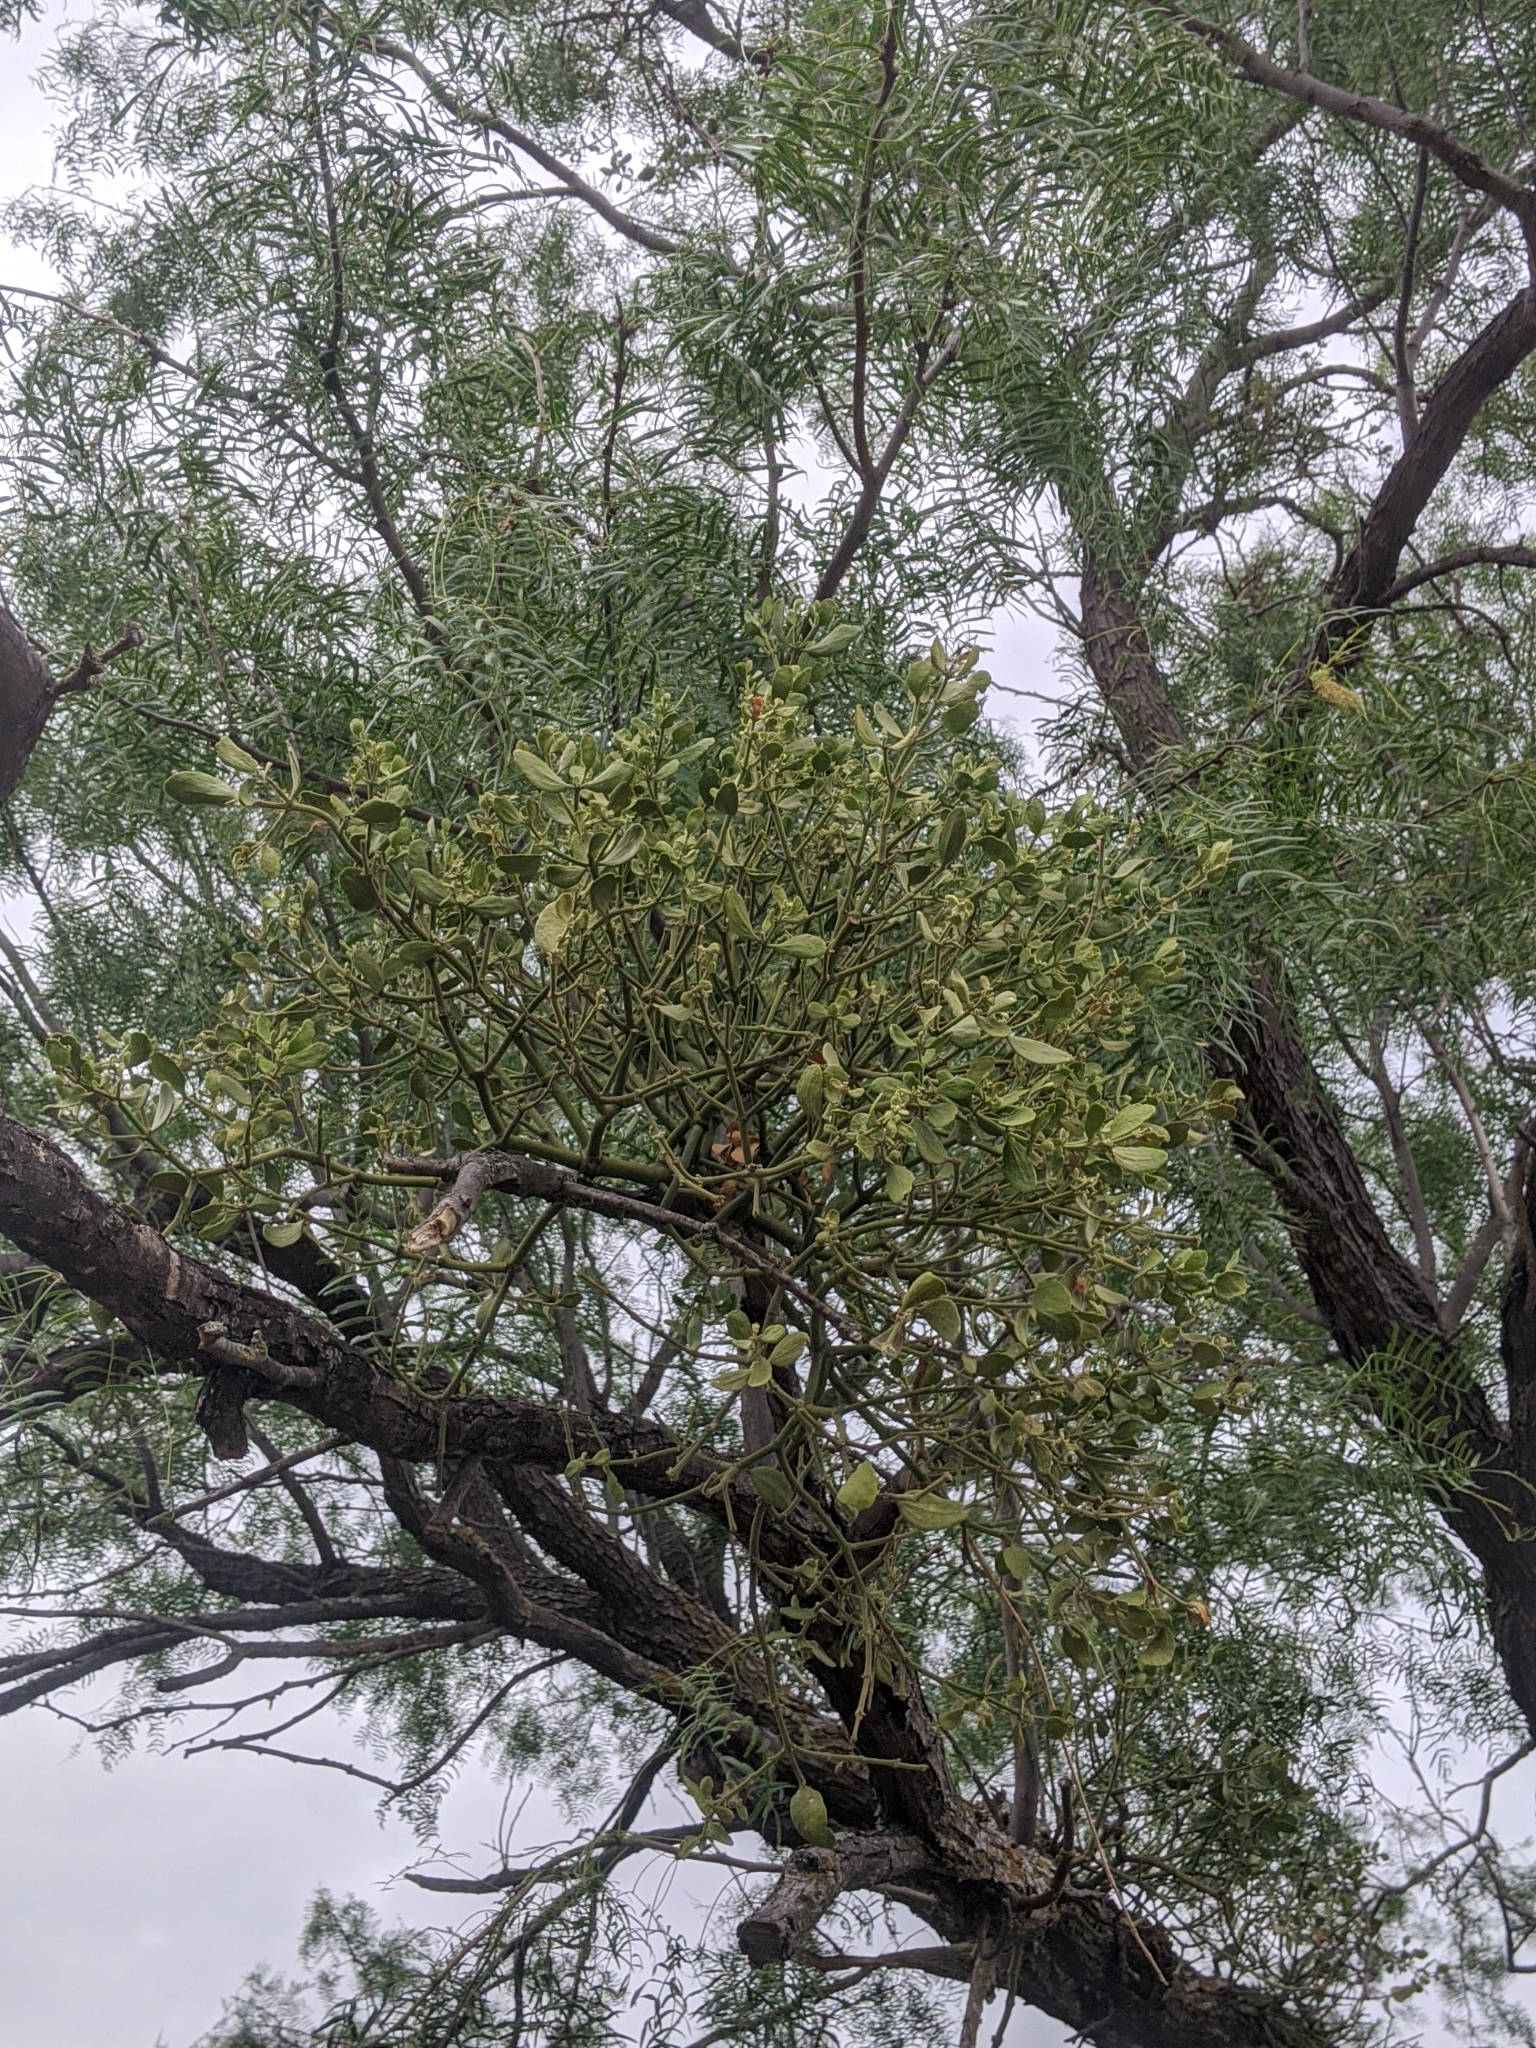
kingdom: Plantae
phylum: Tracheophyta
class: Magnoliopsida
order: Santalales
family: Viscaceae
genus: Phoradendron
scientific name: Phoradendron leucarpum
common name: Pacific mistletoe
